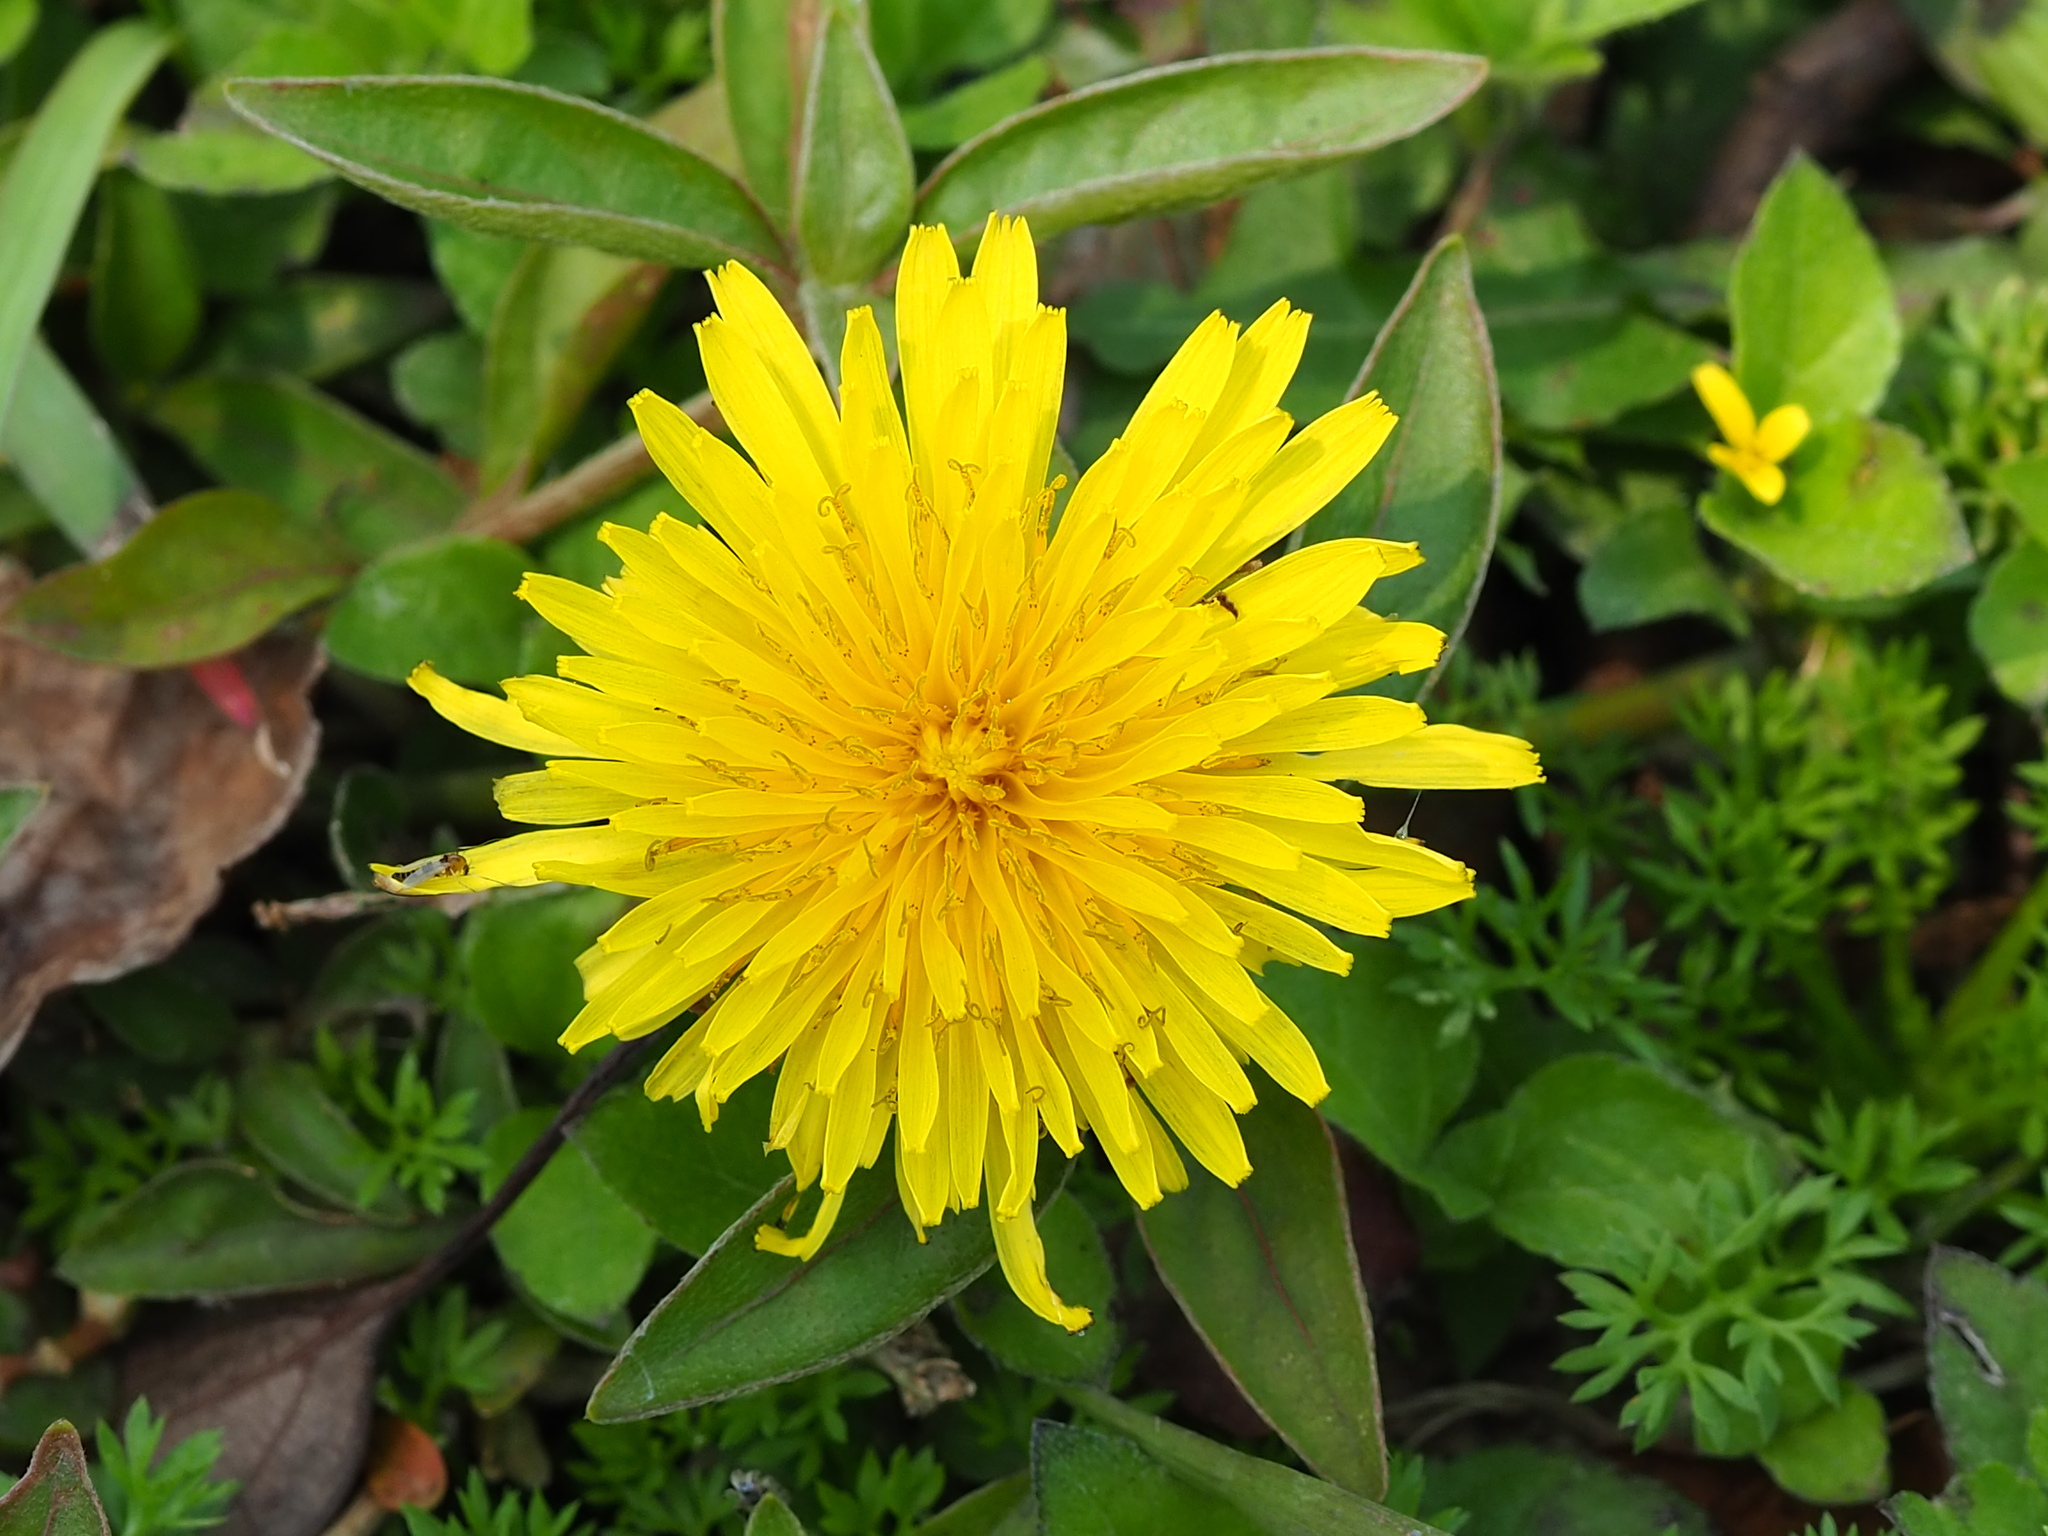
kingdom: Plantae
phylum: Tracheophyta
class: Magnoliopsida
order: Asterales
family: Asteraceae
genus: Taraxacum
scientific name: Taraxacum officinale
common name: Common dandelion
